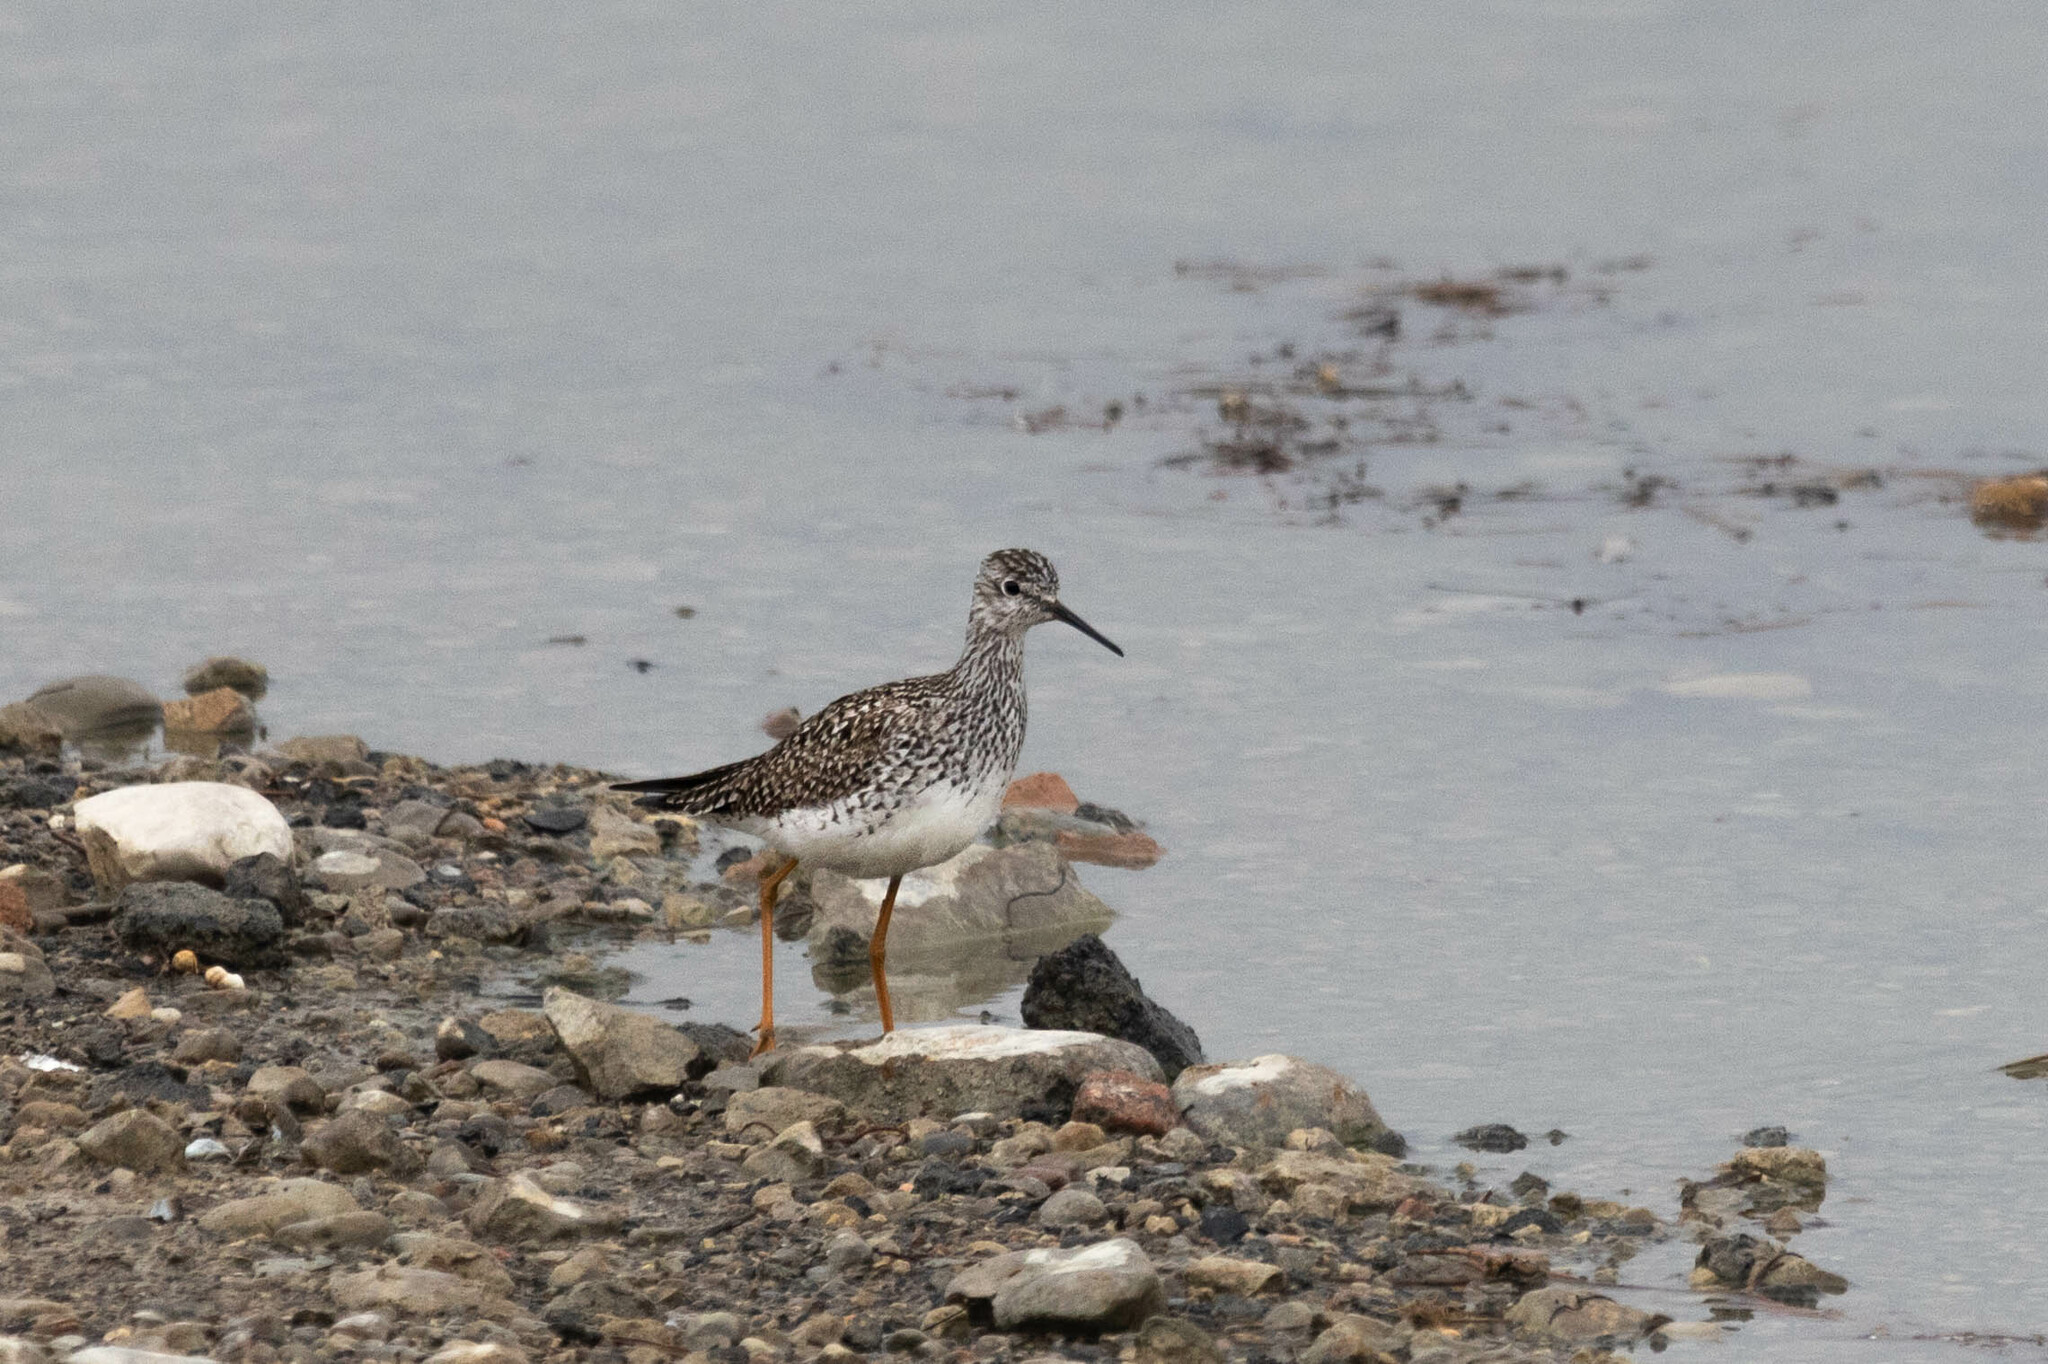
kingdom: Animalia
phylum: Chordata
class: Aves
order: Charadriiformes
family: Scolopacidae
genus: Tringa
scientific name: Tringa flavipes
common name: Lesser yellowlegs
